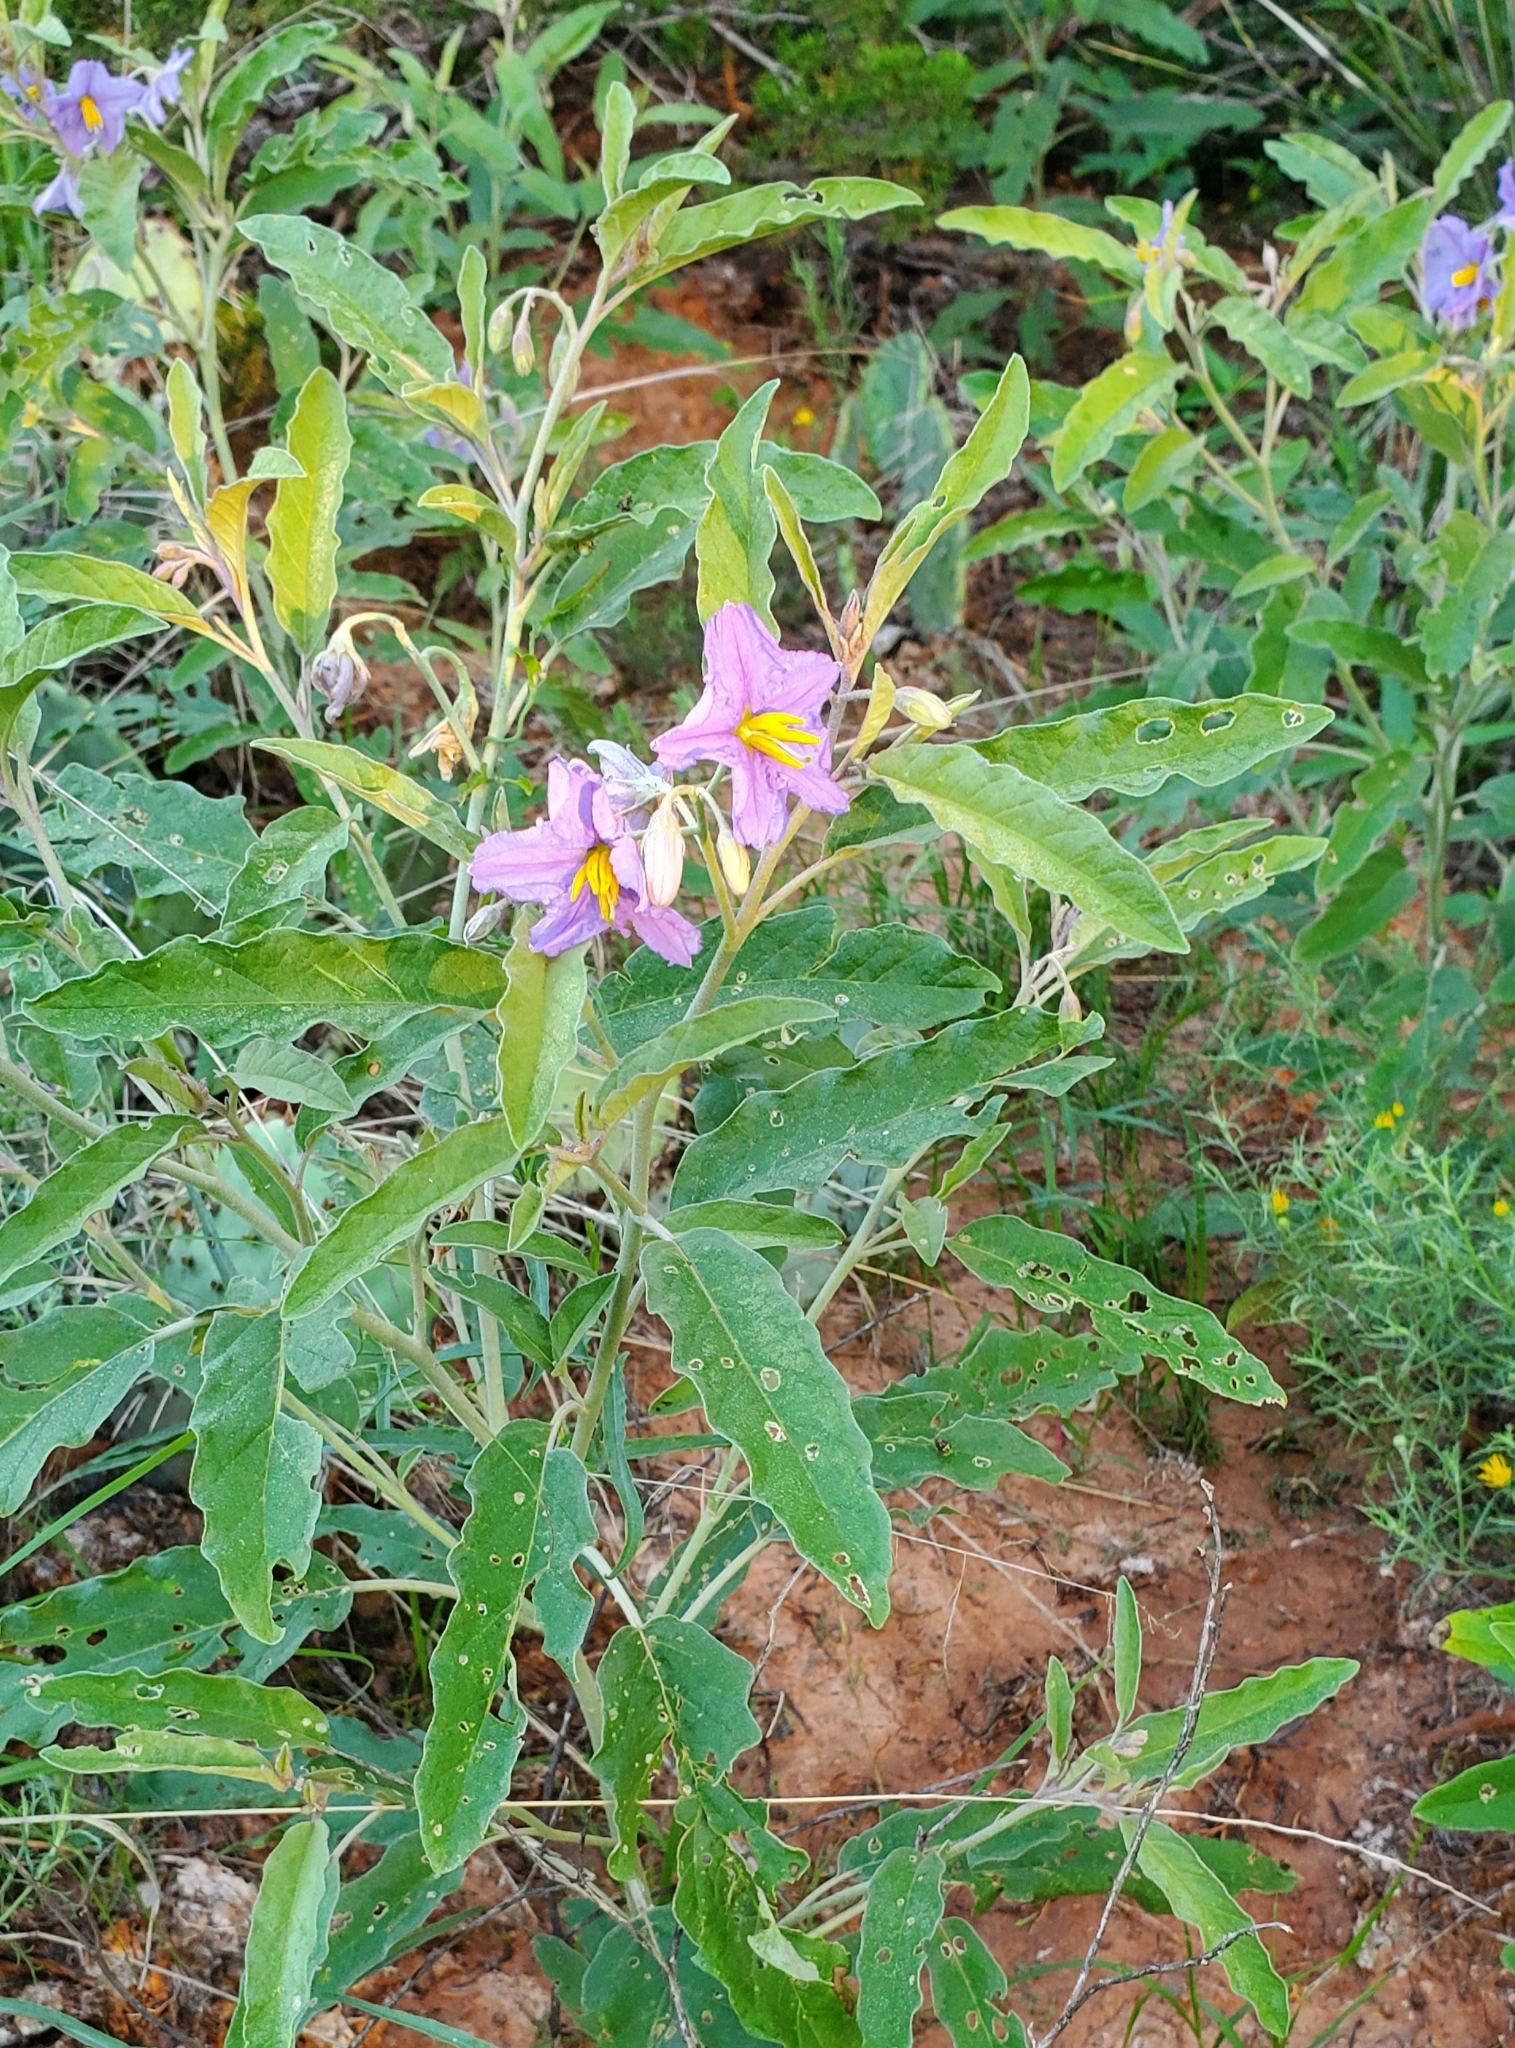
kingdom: Plantae
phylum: Tracheophyta
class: Magnoliopsida
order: Solanales
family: Solanaceae
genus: Solanum
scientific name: Solanum elaeagnifolium
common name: Silverleaf nightshade
